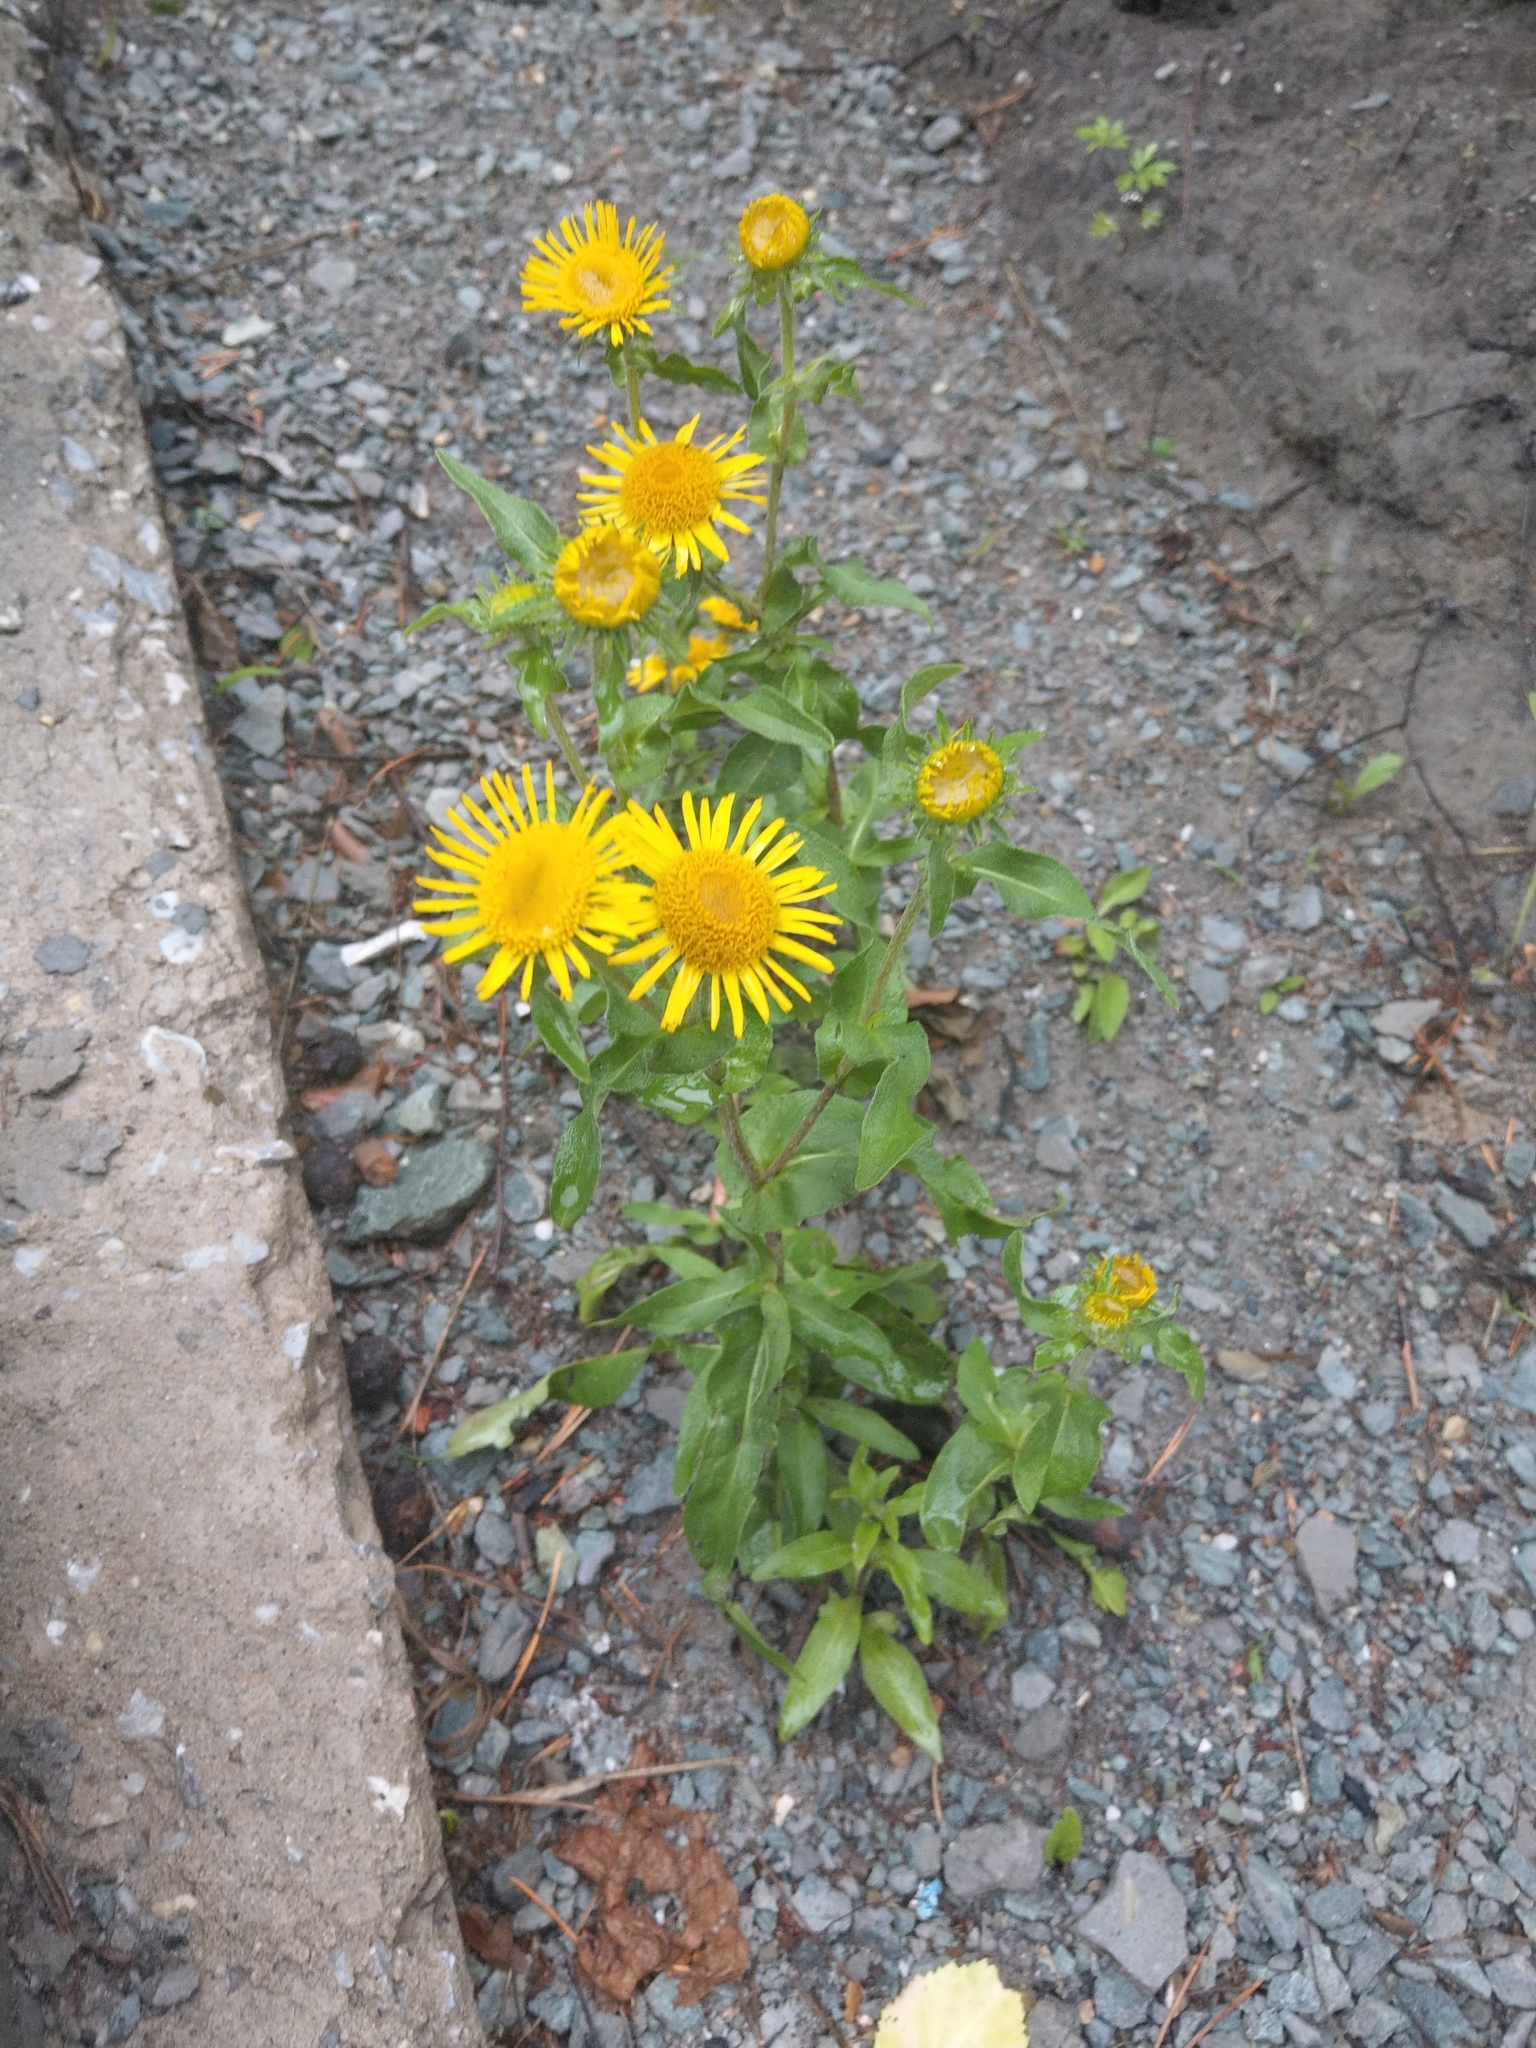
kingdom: Plantae
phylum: Tracheophyta
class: Magnoliopsida
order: Asterales
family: Asteraceae
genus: Pentanema
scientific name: Pentanema britannicum
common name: British elecampane
